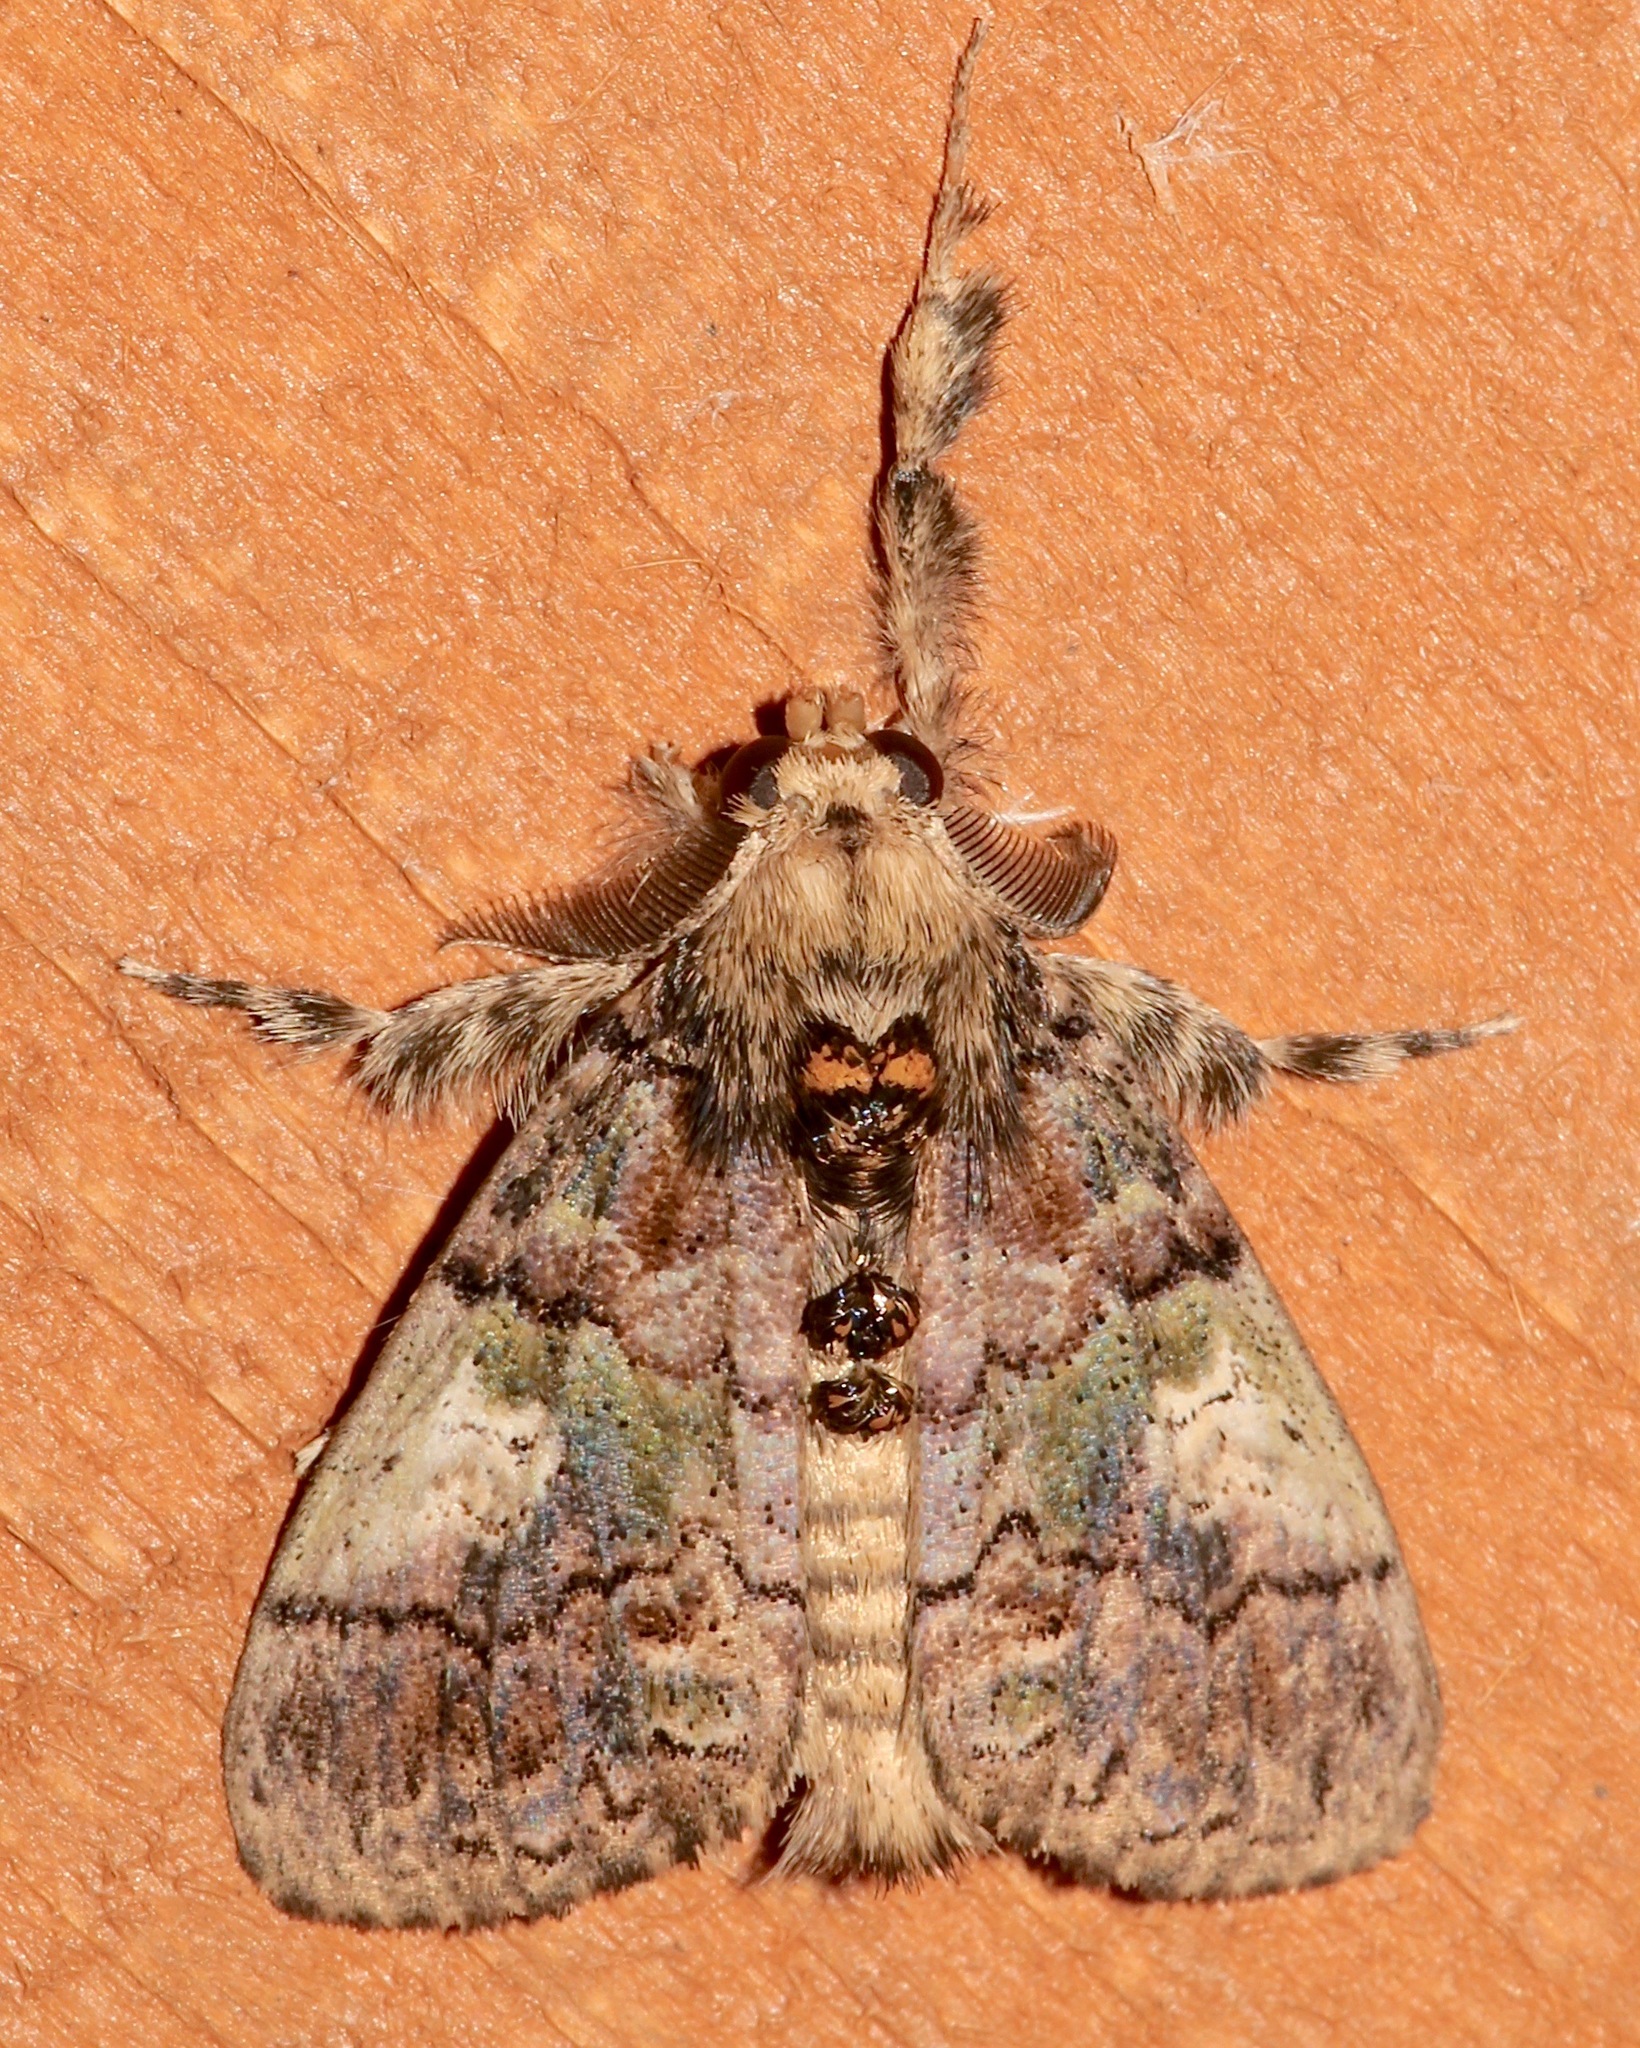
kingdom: Animalia
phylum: Arthropoda
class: Insecta
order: Lepidoptera
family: Erebidae
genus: Dasychira
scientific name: Dasychira meridionalis
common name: Southern tussock moth
